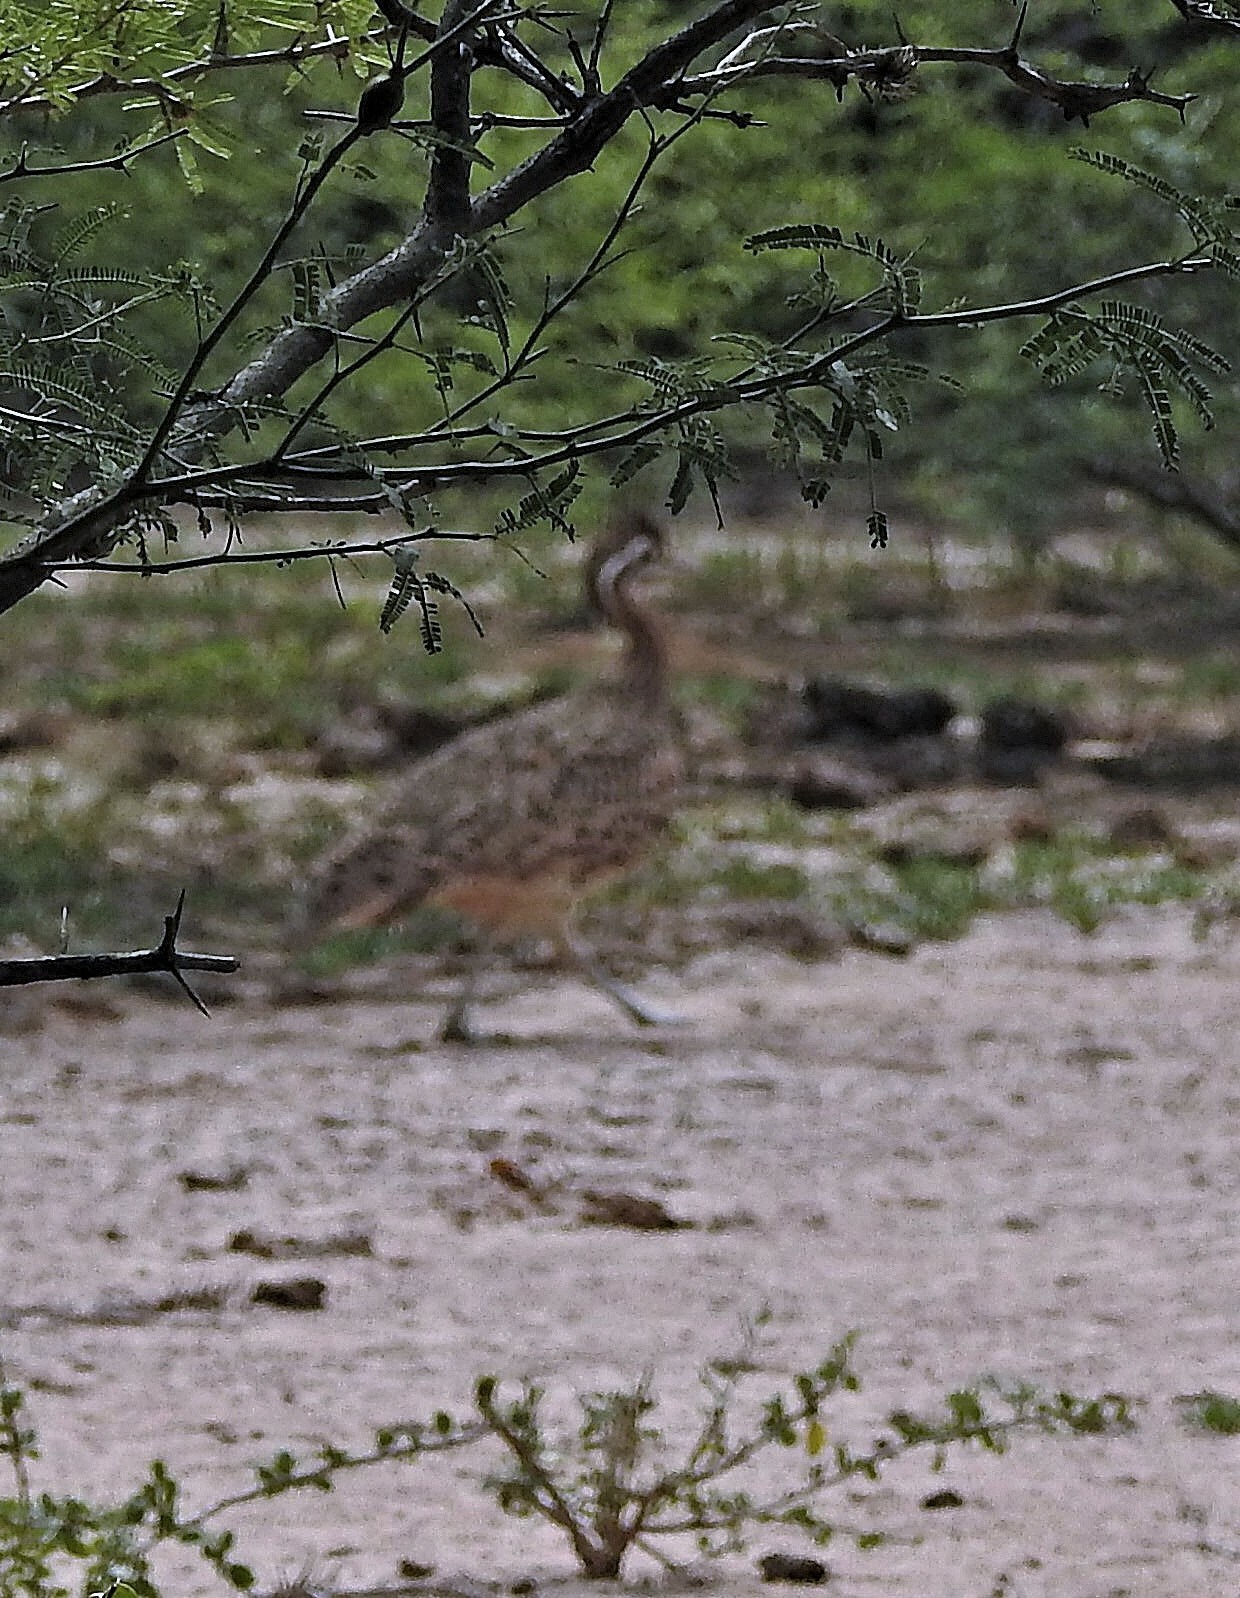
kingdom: Animalia
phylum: Chordata
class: Aves
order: Tinamiformes
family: Tinamidae
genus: Eudromia
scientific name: Eudromia formosa
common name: Quebracho crested tinamou
